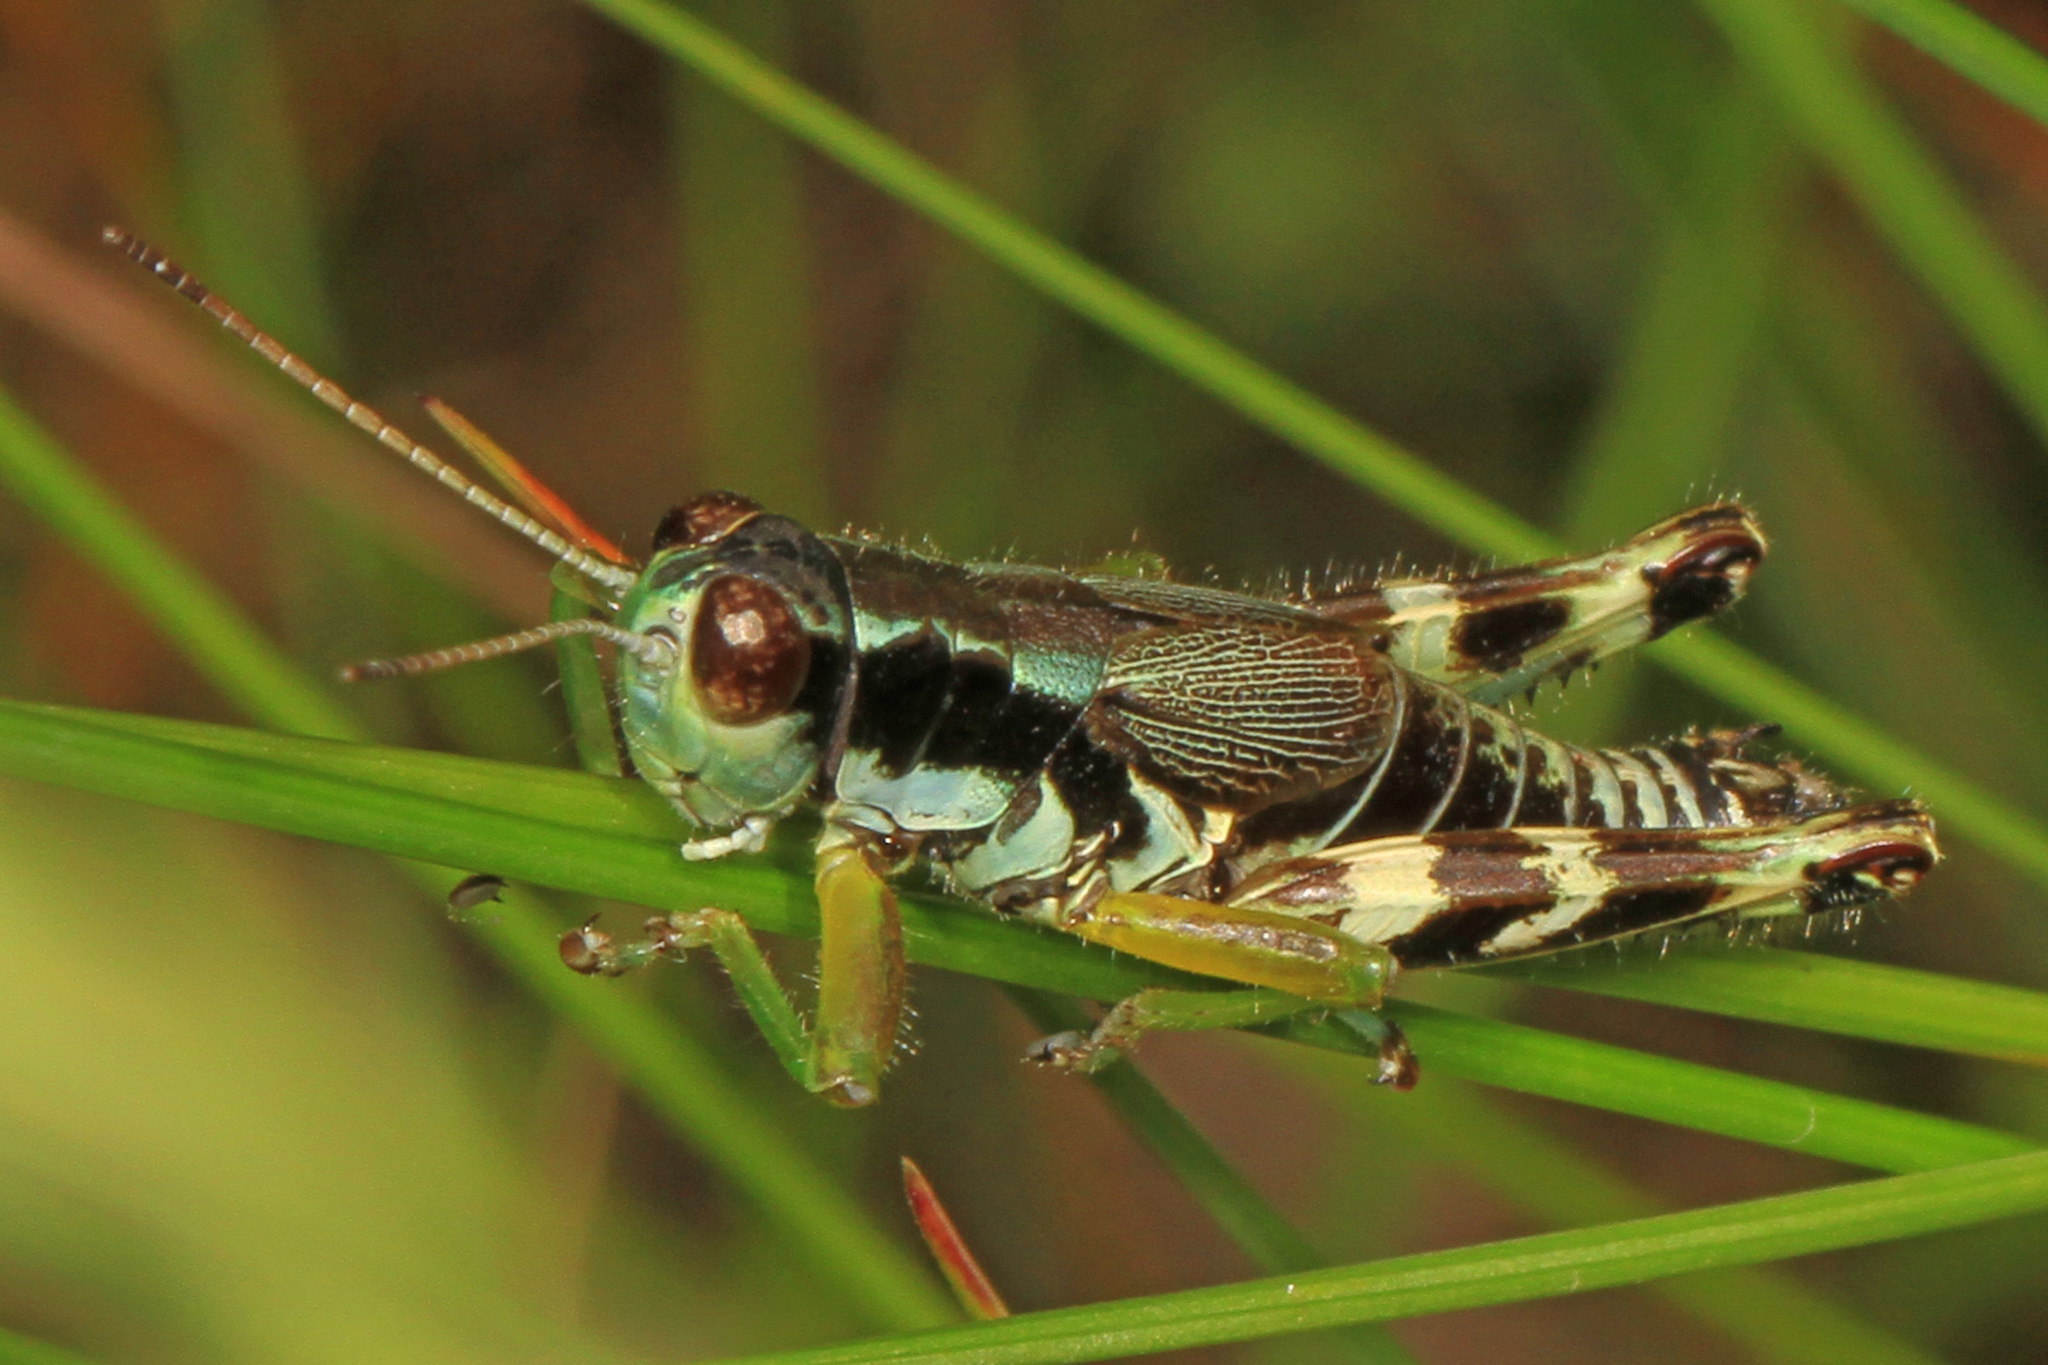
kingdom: Animalia
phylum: Arthropoda
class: Insecta
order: Orthoptera
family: Acrididae
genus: Melanoplus
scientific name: Melanoplus viridipes
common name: Green-legged locust
